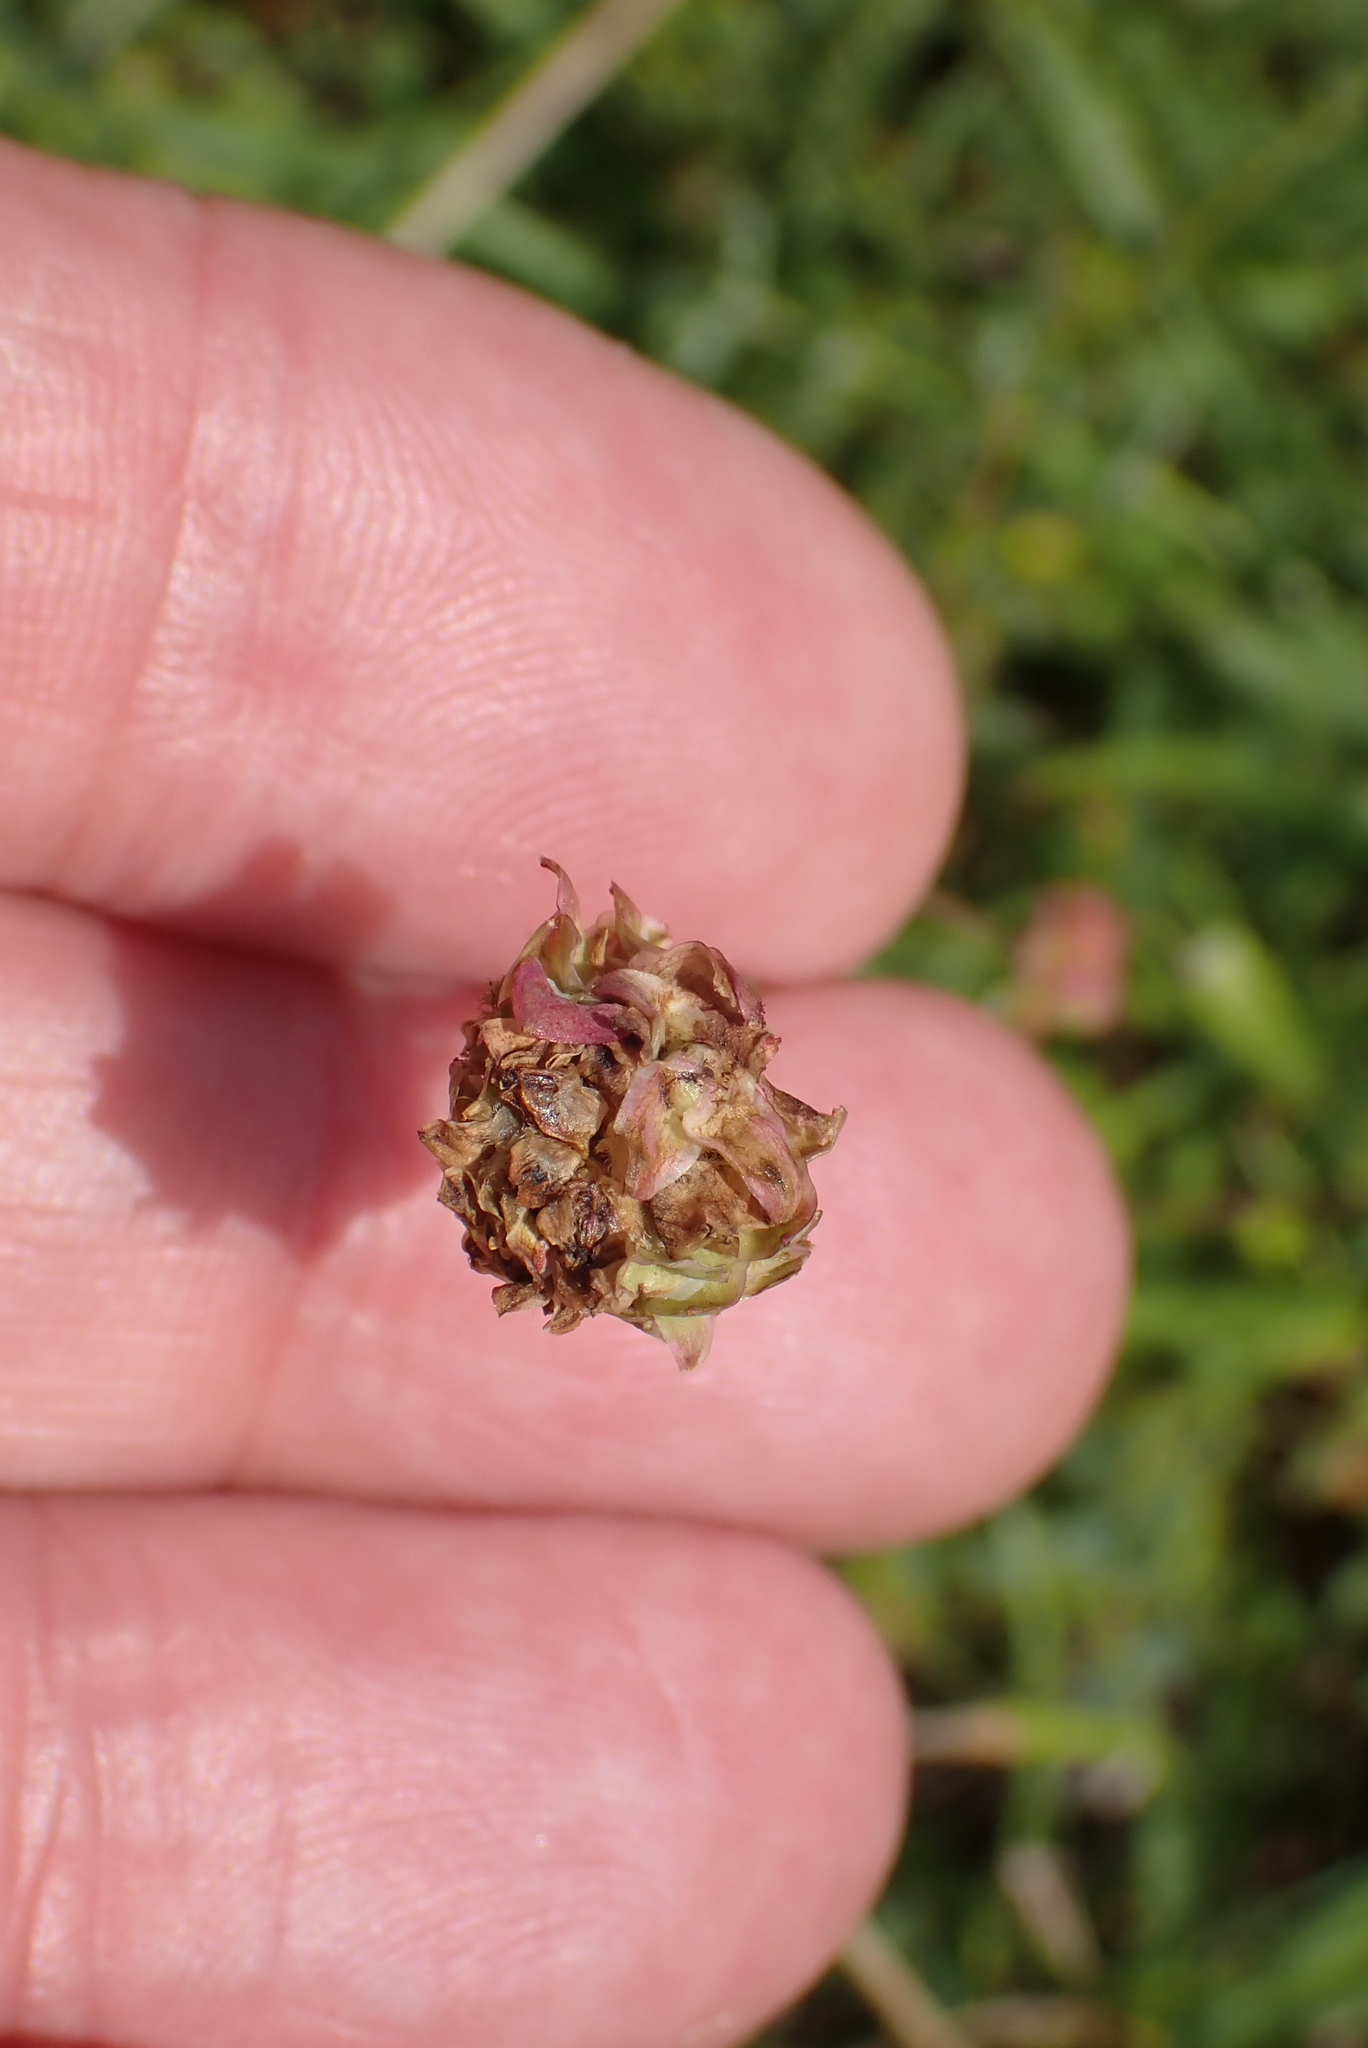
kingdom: Plantae
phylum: Tracheophyta
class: Magnoliopsida
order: Rosales
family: Rosaceae
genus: Poterium
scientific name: Poterium sanguisorba
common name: Salad burnet
